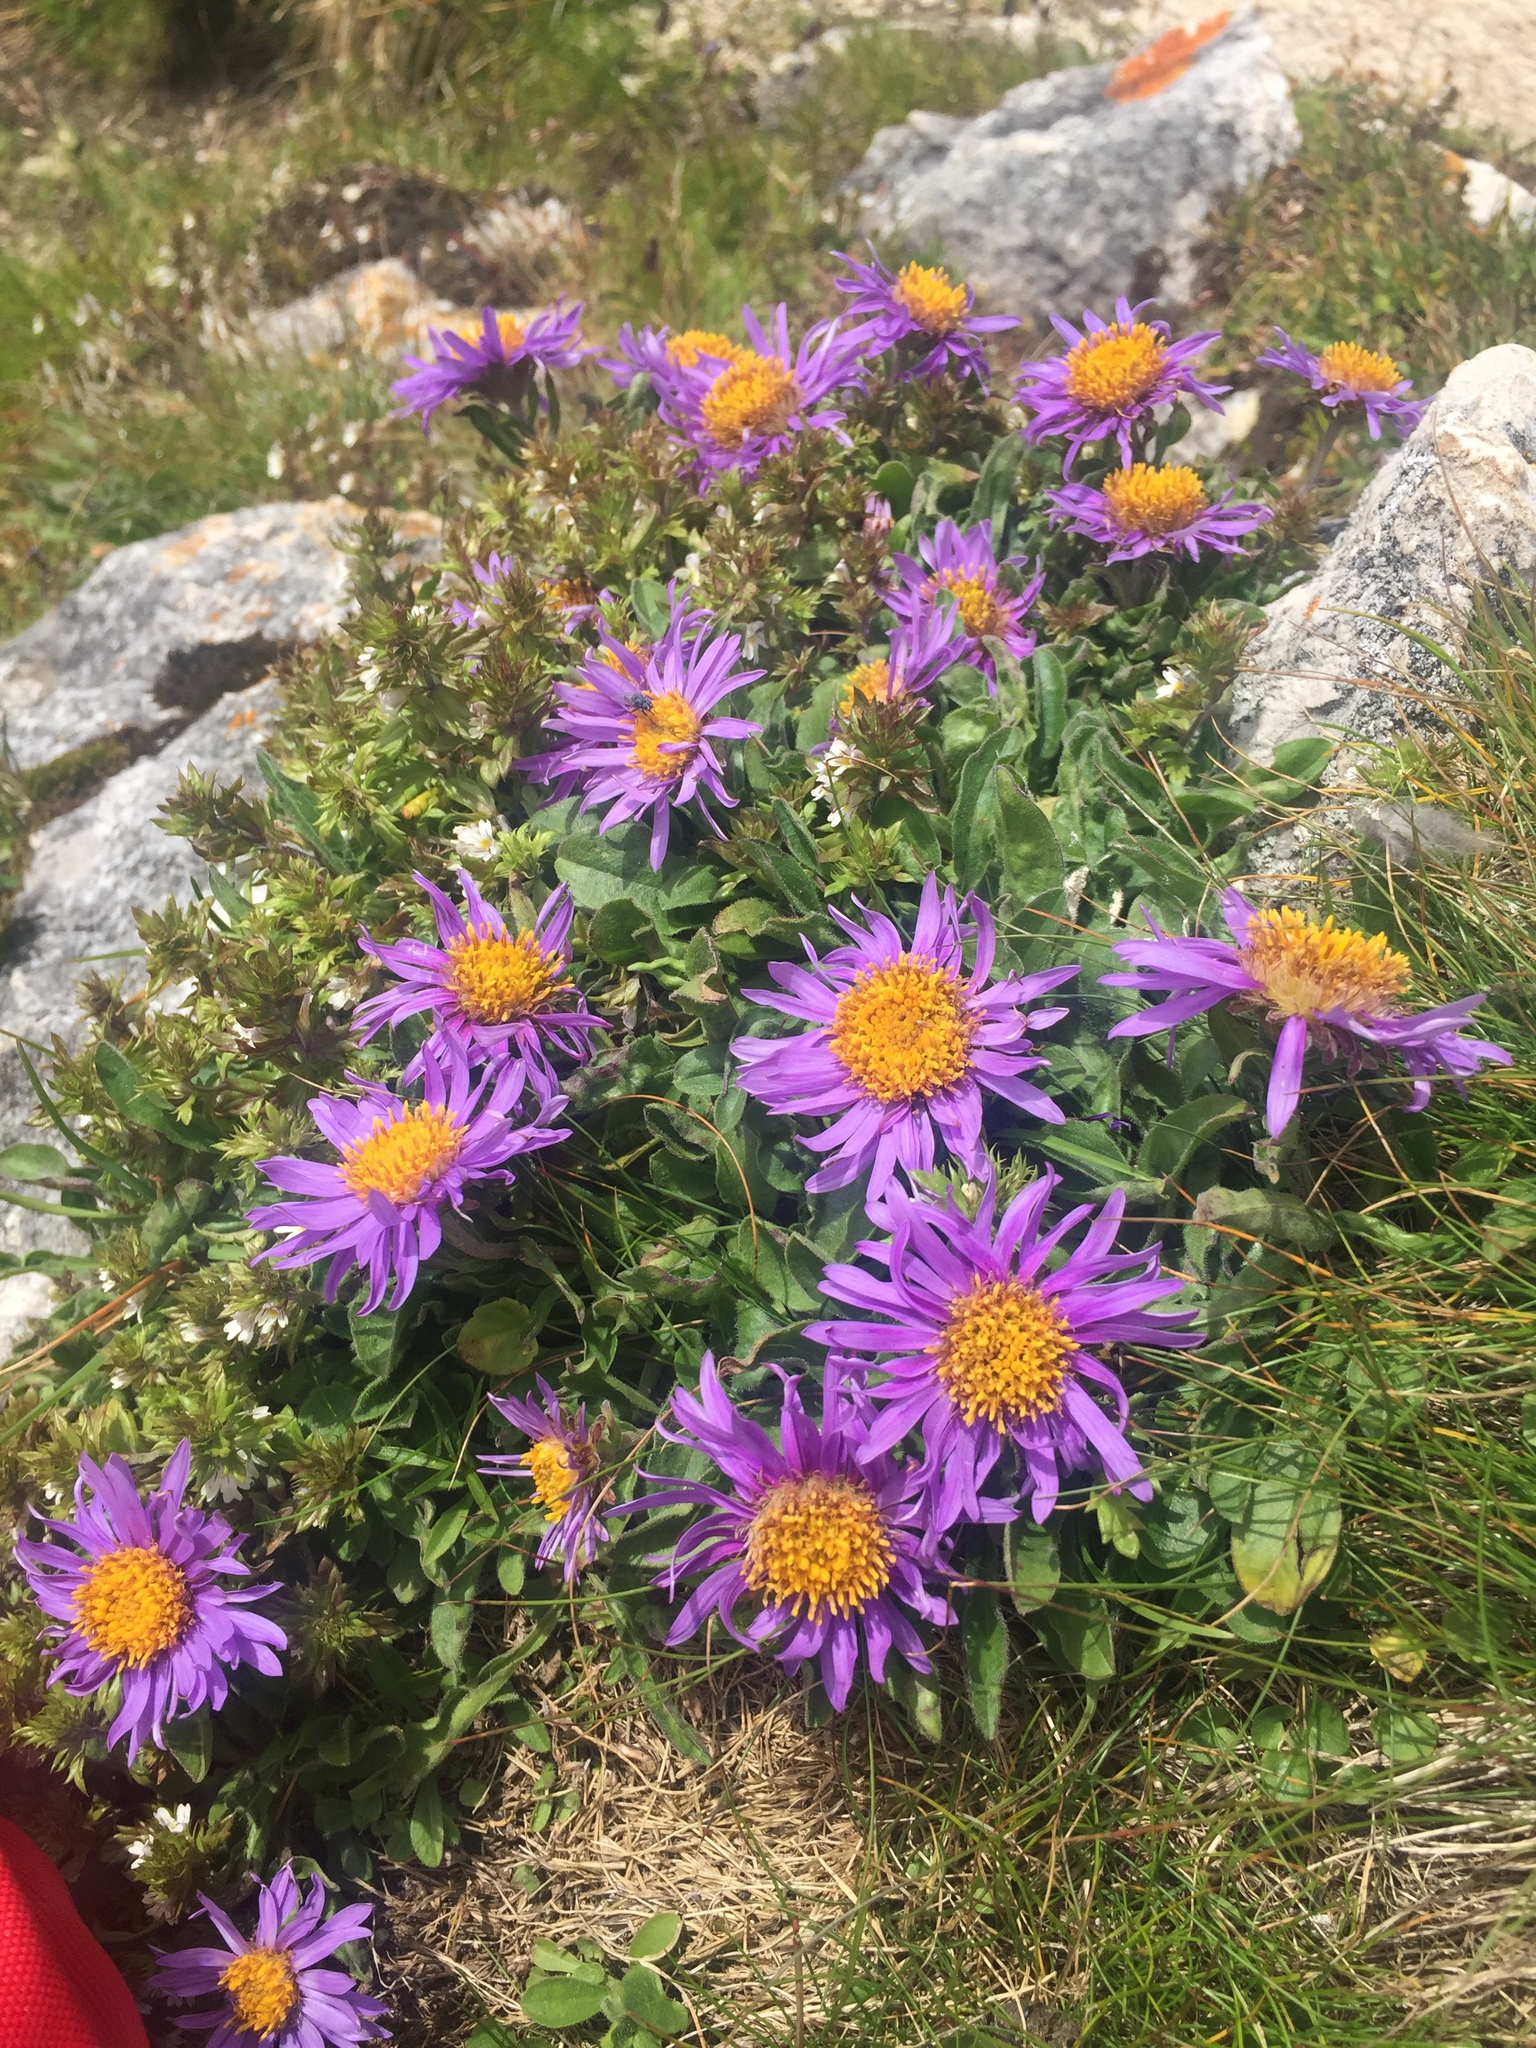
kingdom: Plantae
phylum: Tracheophyta
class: Magnoliopsida
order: Asterales
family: Asteraceae
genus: Aster
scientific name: Aster alpinus
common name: Alpine aster
